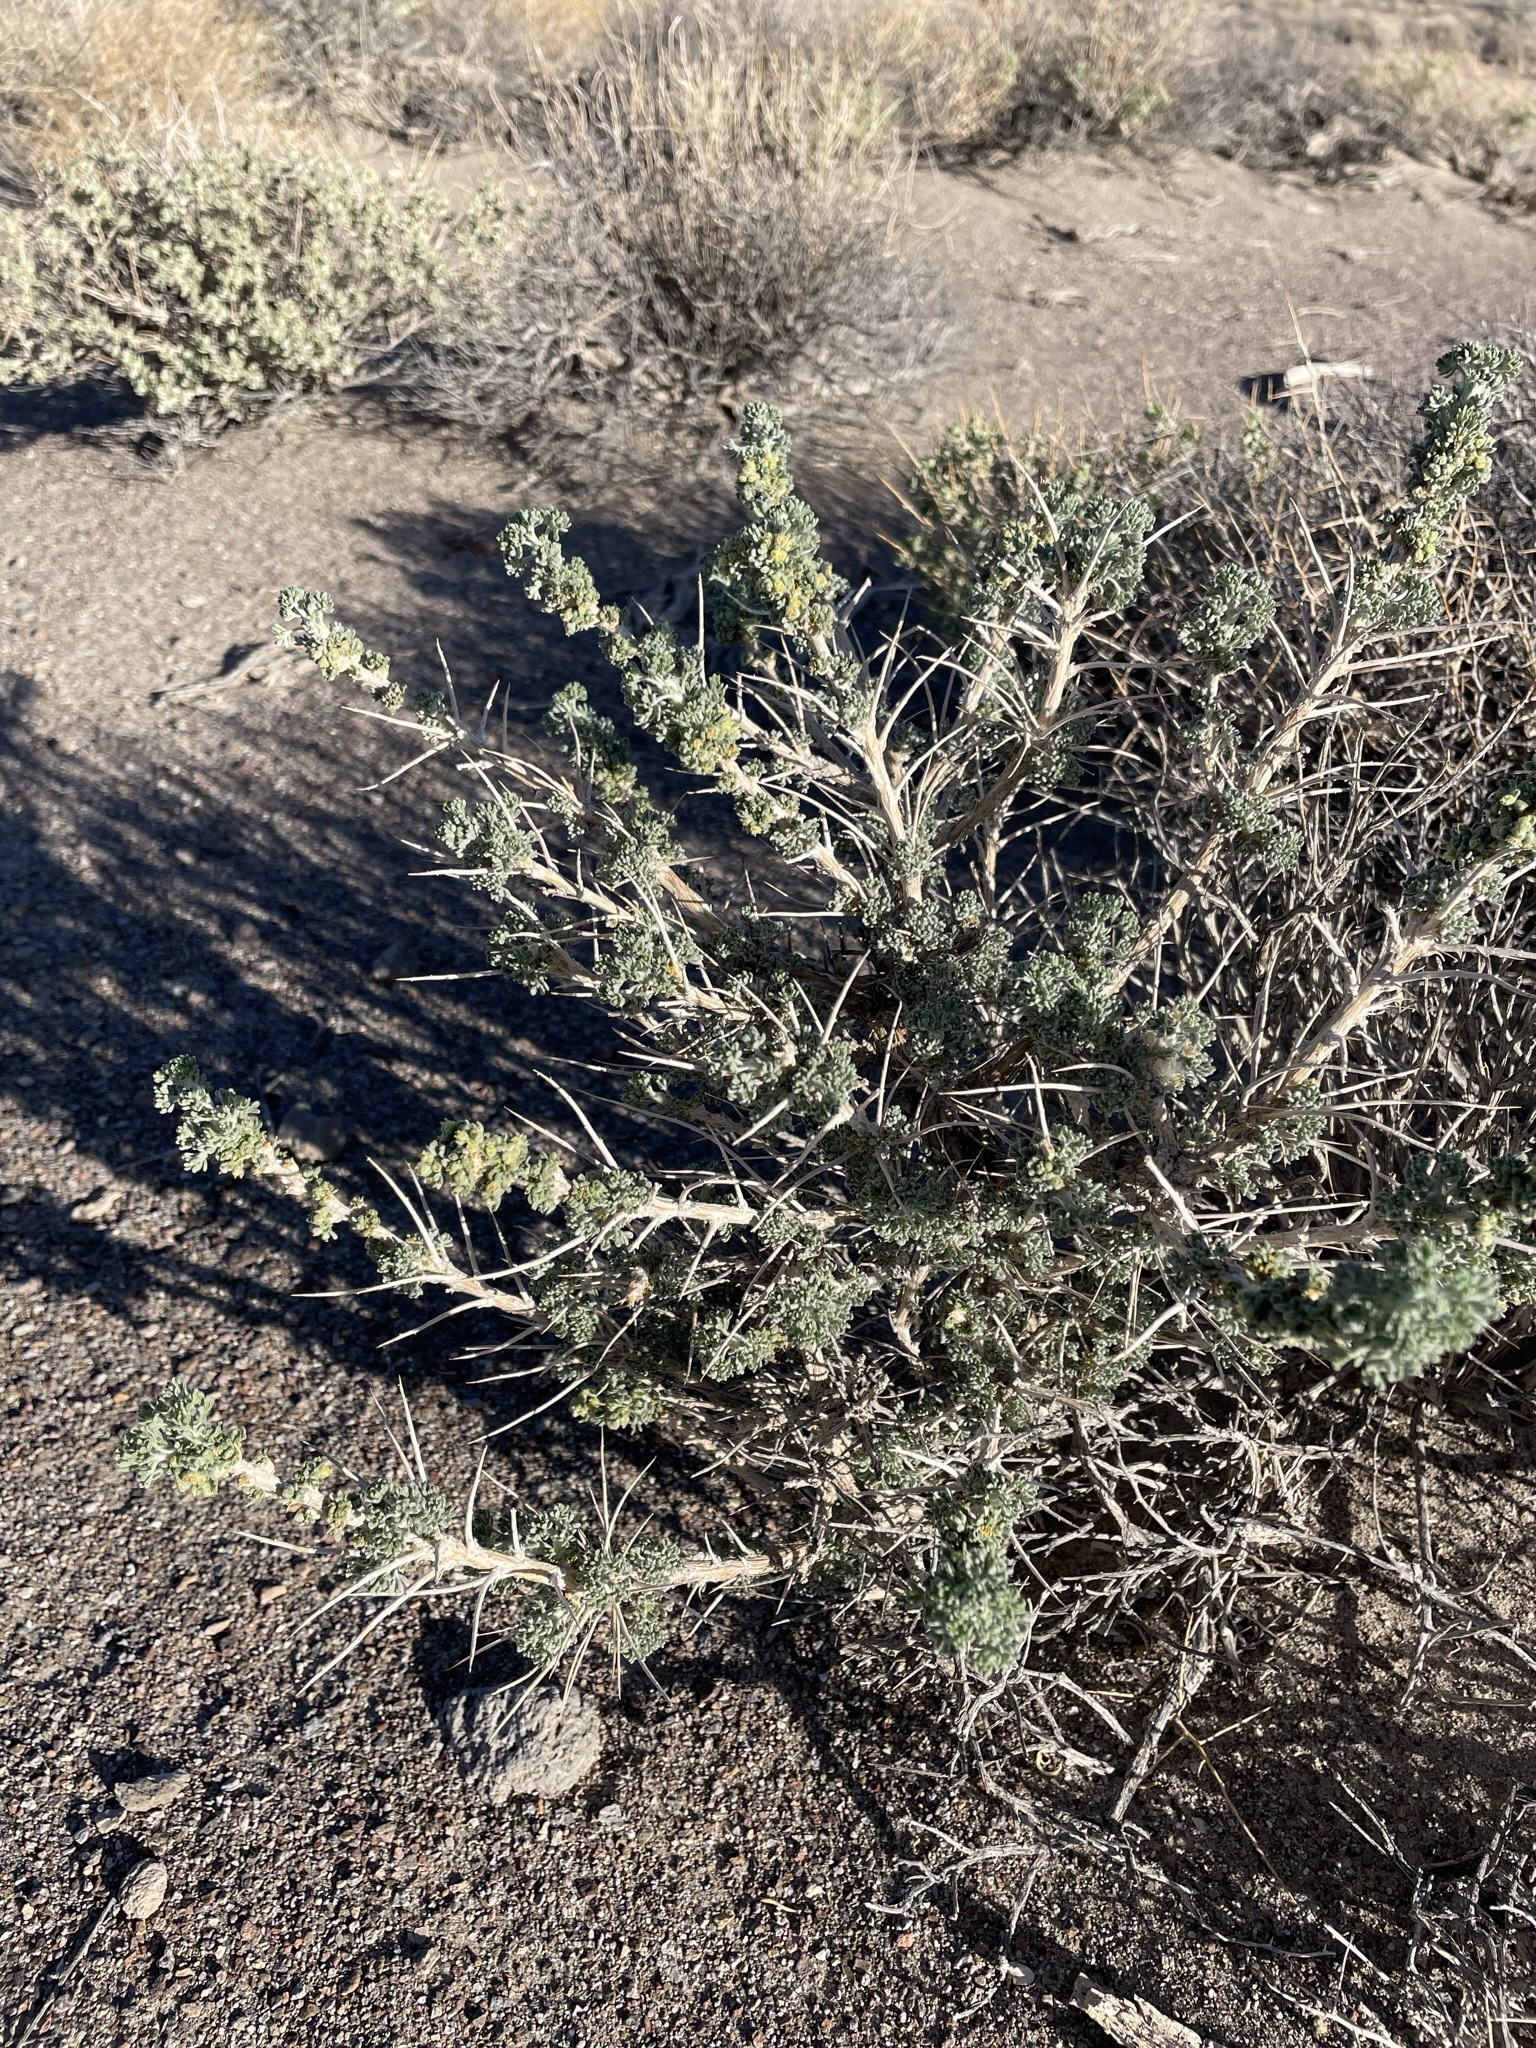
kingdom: Plantae
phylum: Tracheophyta
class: Magnoliopsida
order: Asterales
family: Asteraceae
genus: Artemisia
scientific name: Artemisia spinescens
